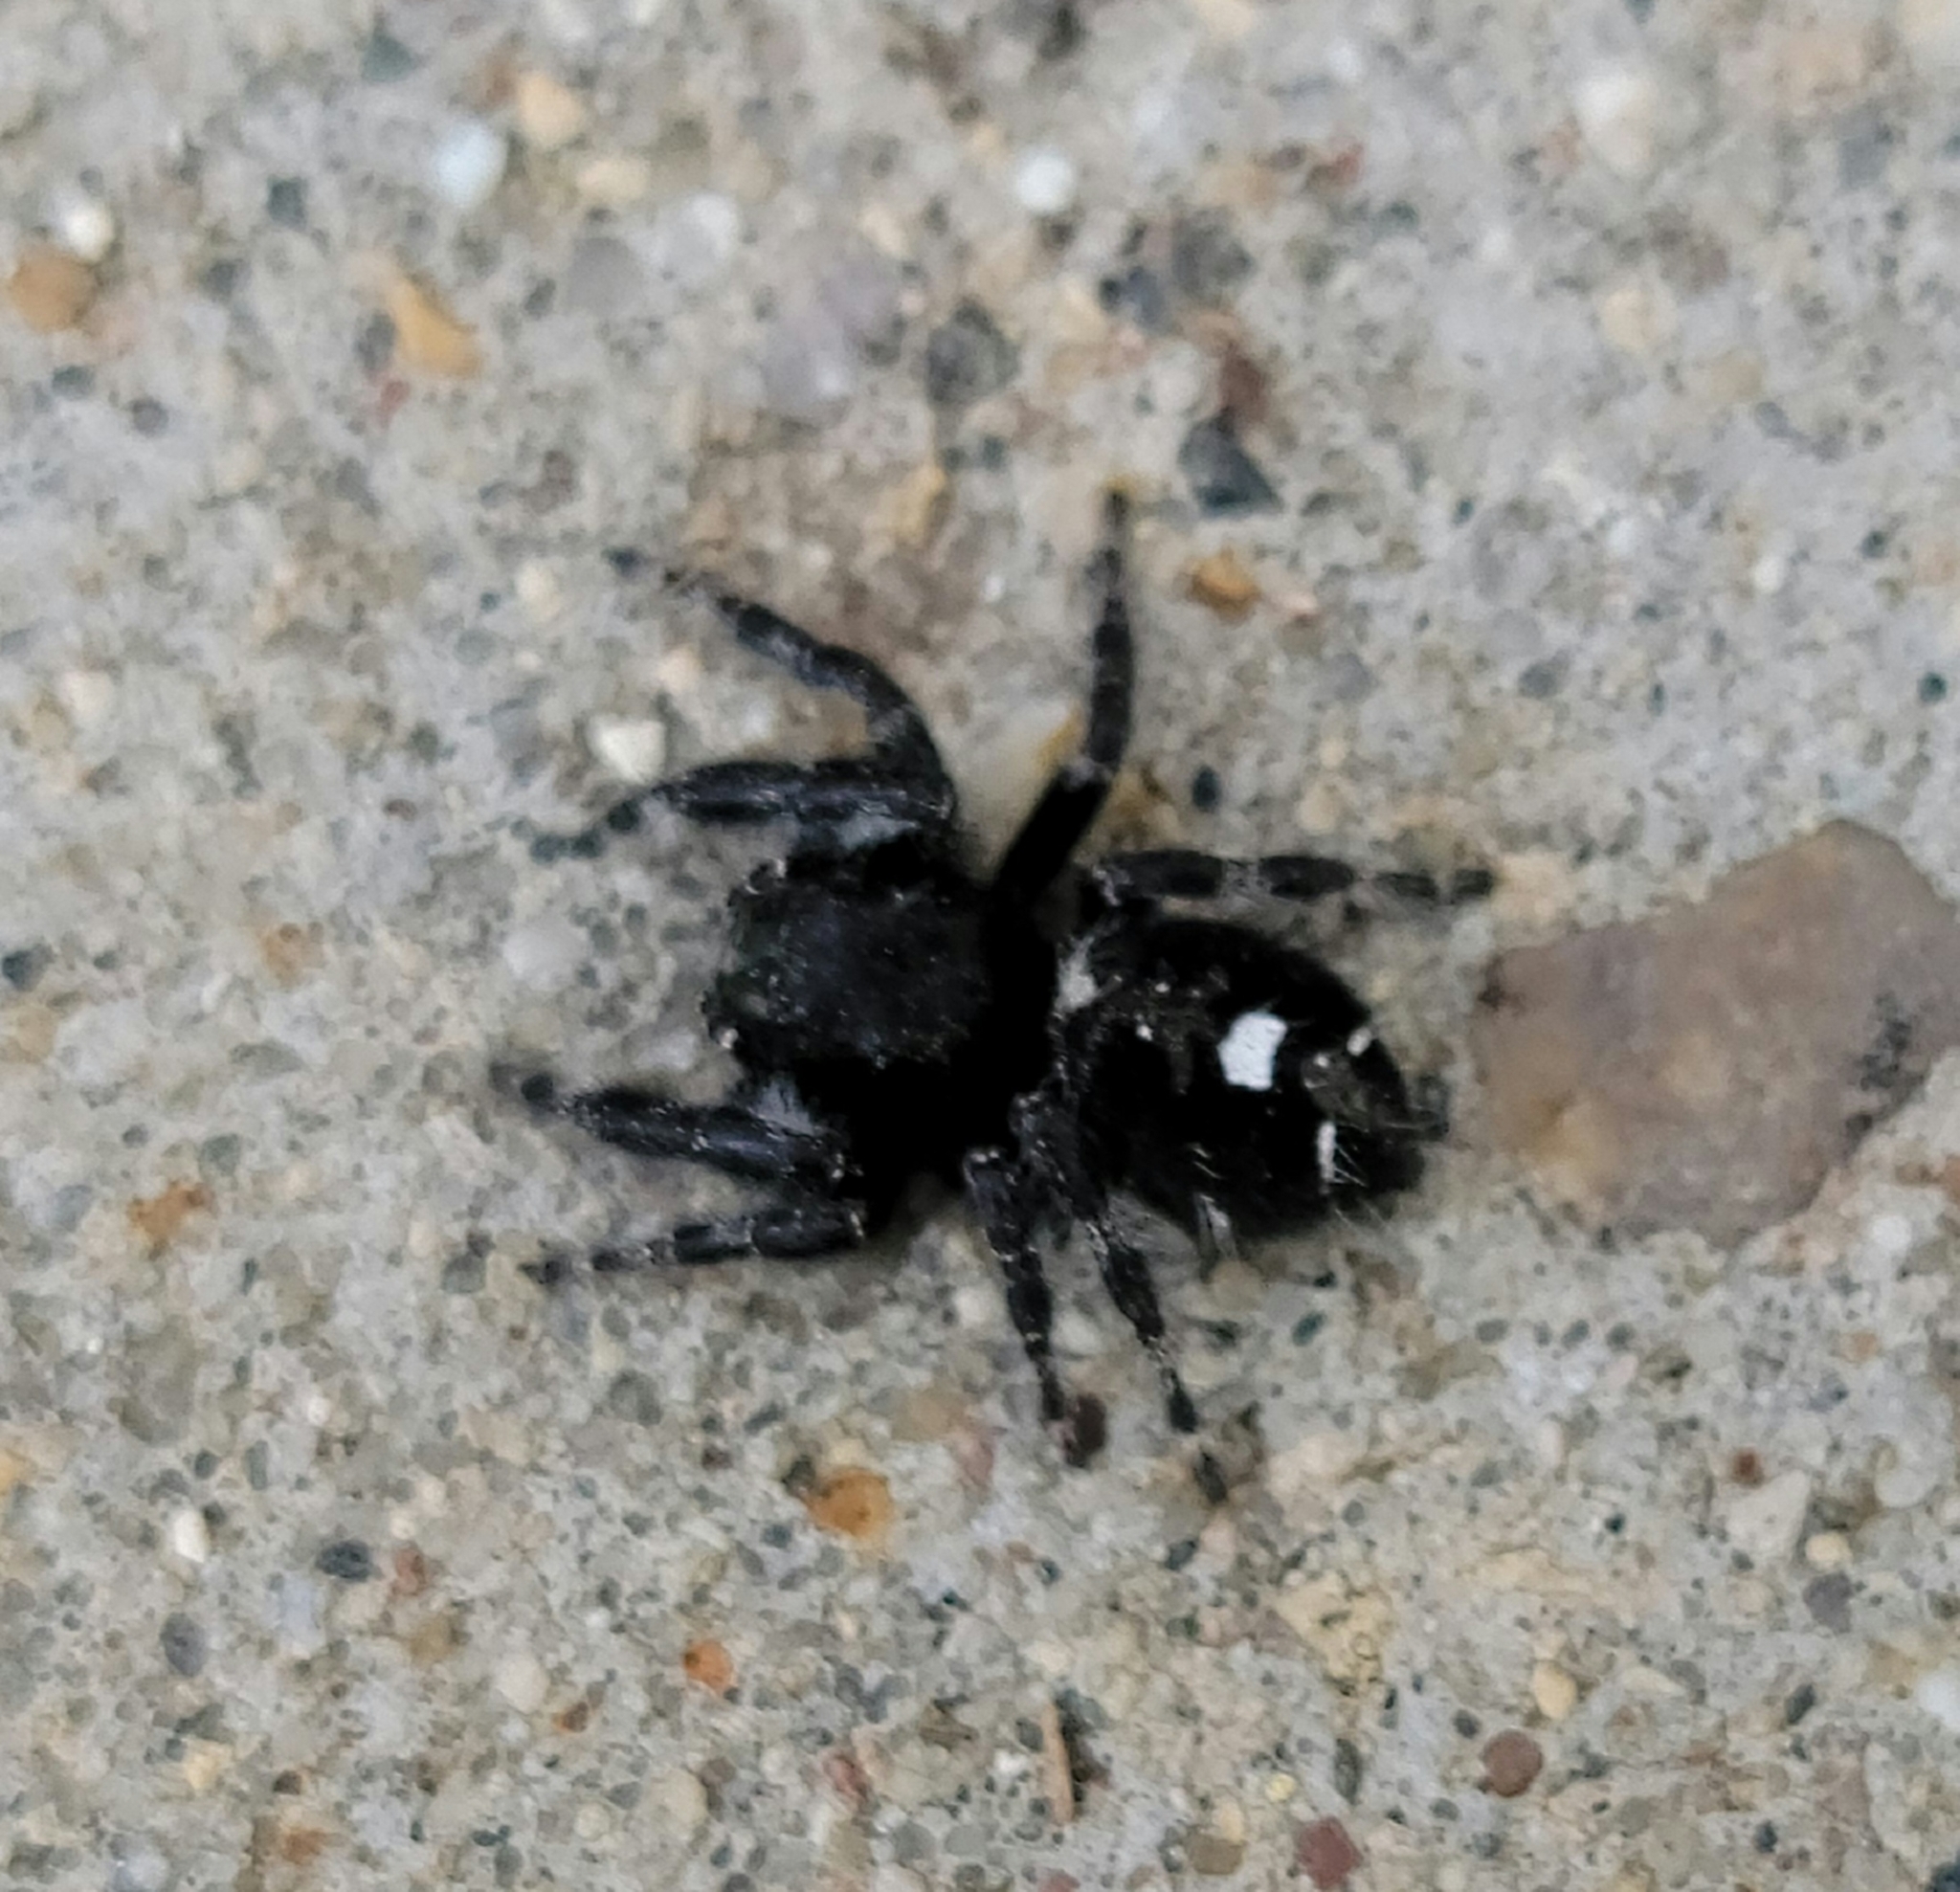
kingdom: Animalia
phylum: Arthropoda
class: Arachnida
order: Araneae
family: Salticidae
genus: Phidippus
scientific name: Phidippus audax
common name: Bold jumper
